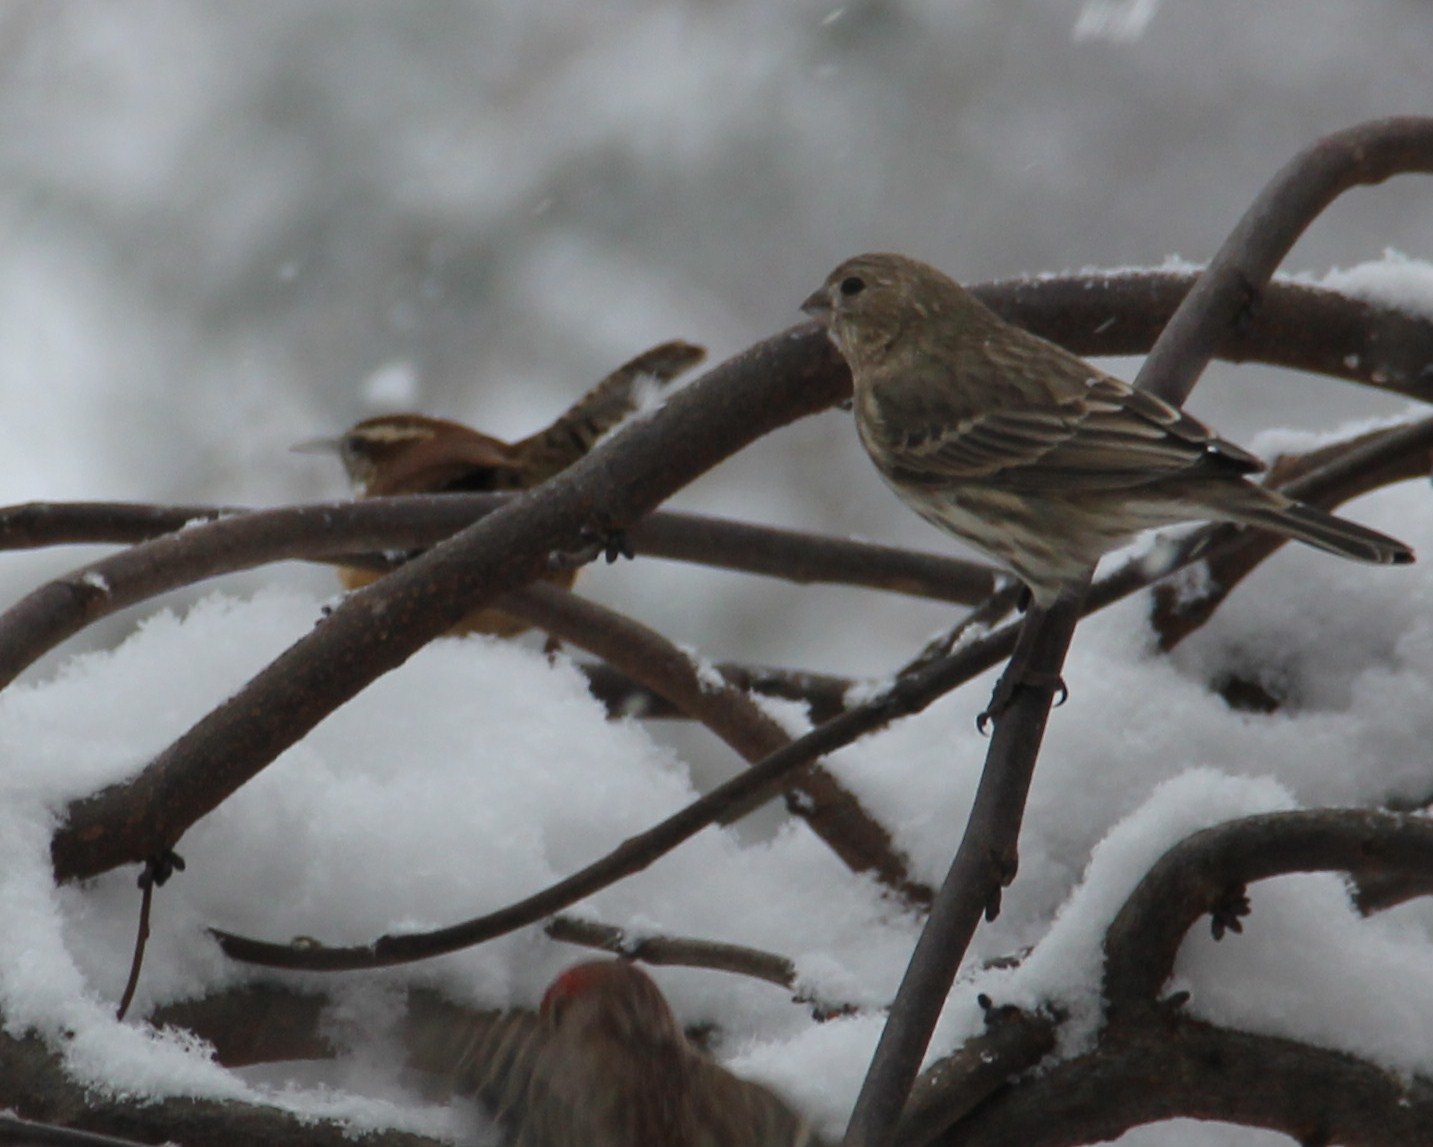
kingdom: Animalia
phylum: Chordata
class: Aves
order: Passeriformes
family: Troglodytidae
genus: Thryothorus
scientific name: Thryothorus ludovicianus
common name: Carolina wren
